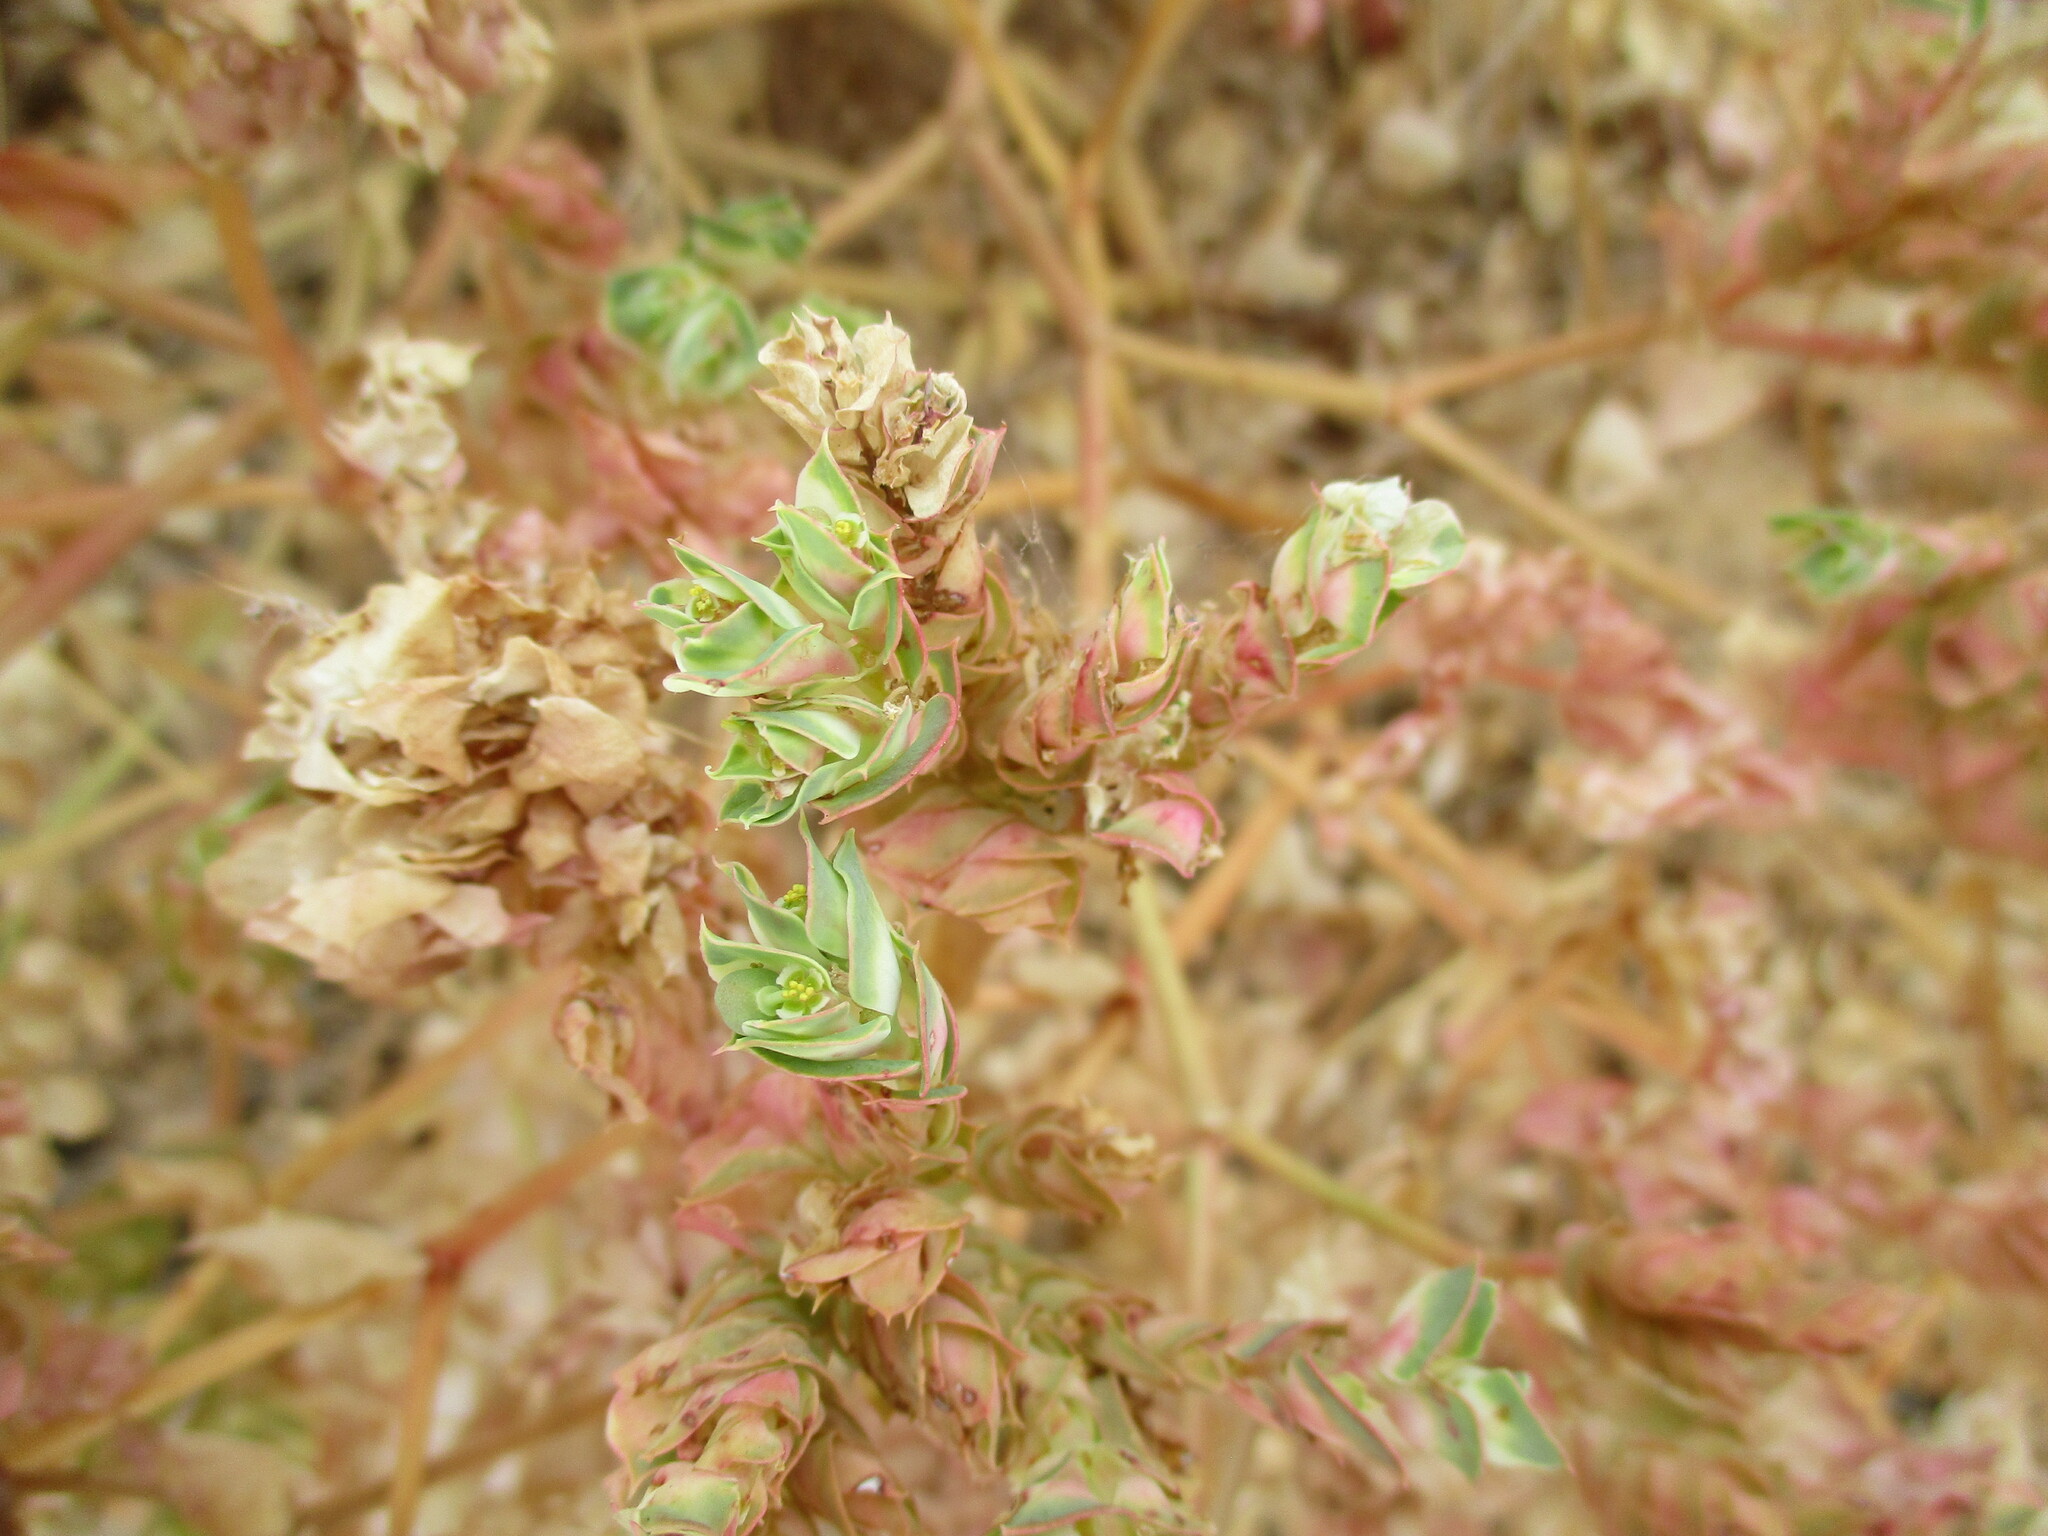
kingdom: Plantae
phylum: Tracheophyta
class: Magnoliopsida
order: Malpighiales
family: Euphorbiaceae
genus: Euphorbia
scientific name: Euphorbia phylloclada
